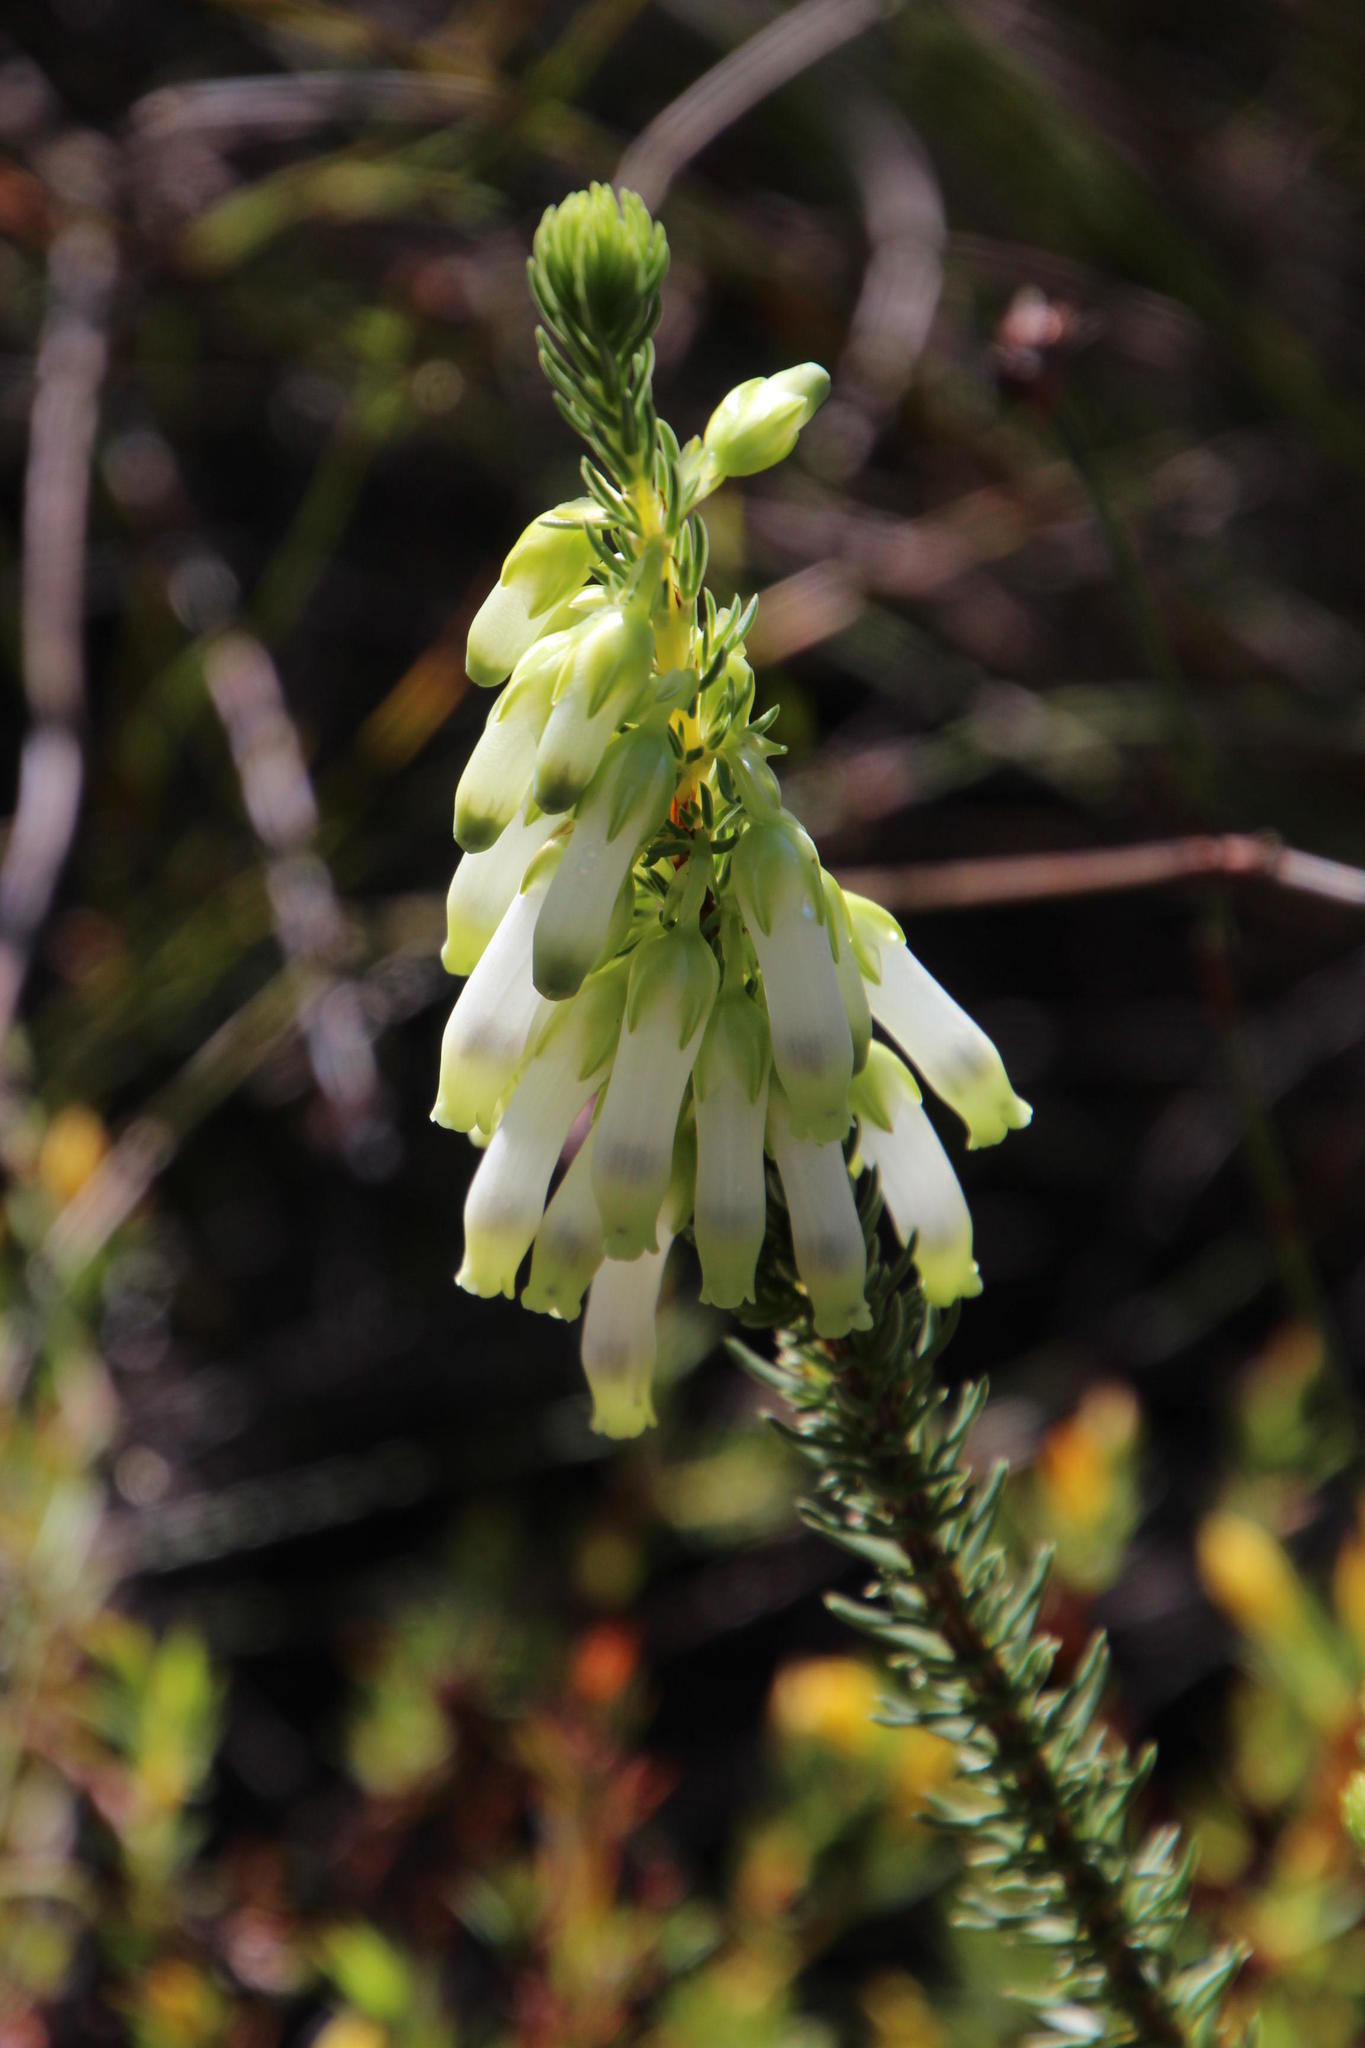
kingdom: Plantae
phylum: Tracheophyta
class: Magnoliopsida
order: Ericales
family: Ericaceae
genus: Erica
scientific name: Erica mammosa
